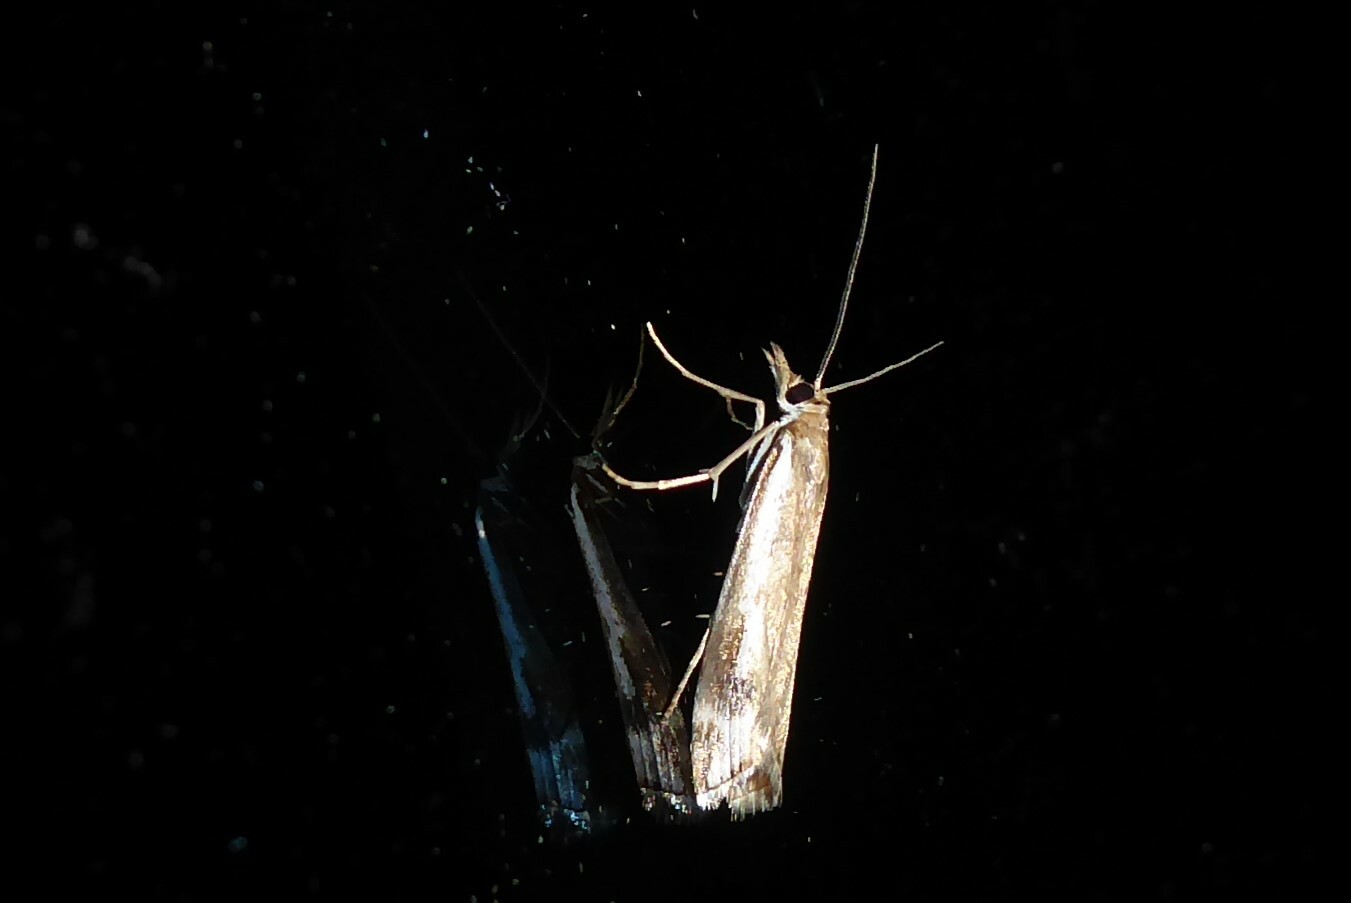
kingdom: Animalia
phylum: Arthropoda
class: Insecta
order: Lepidoptera
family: Crambidae
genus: Orocrambus
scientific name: Orocrambus vulgaris
